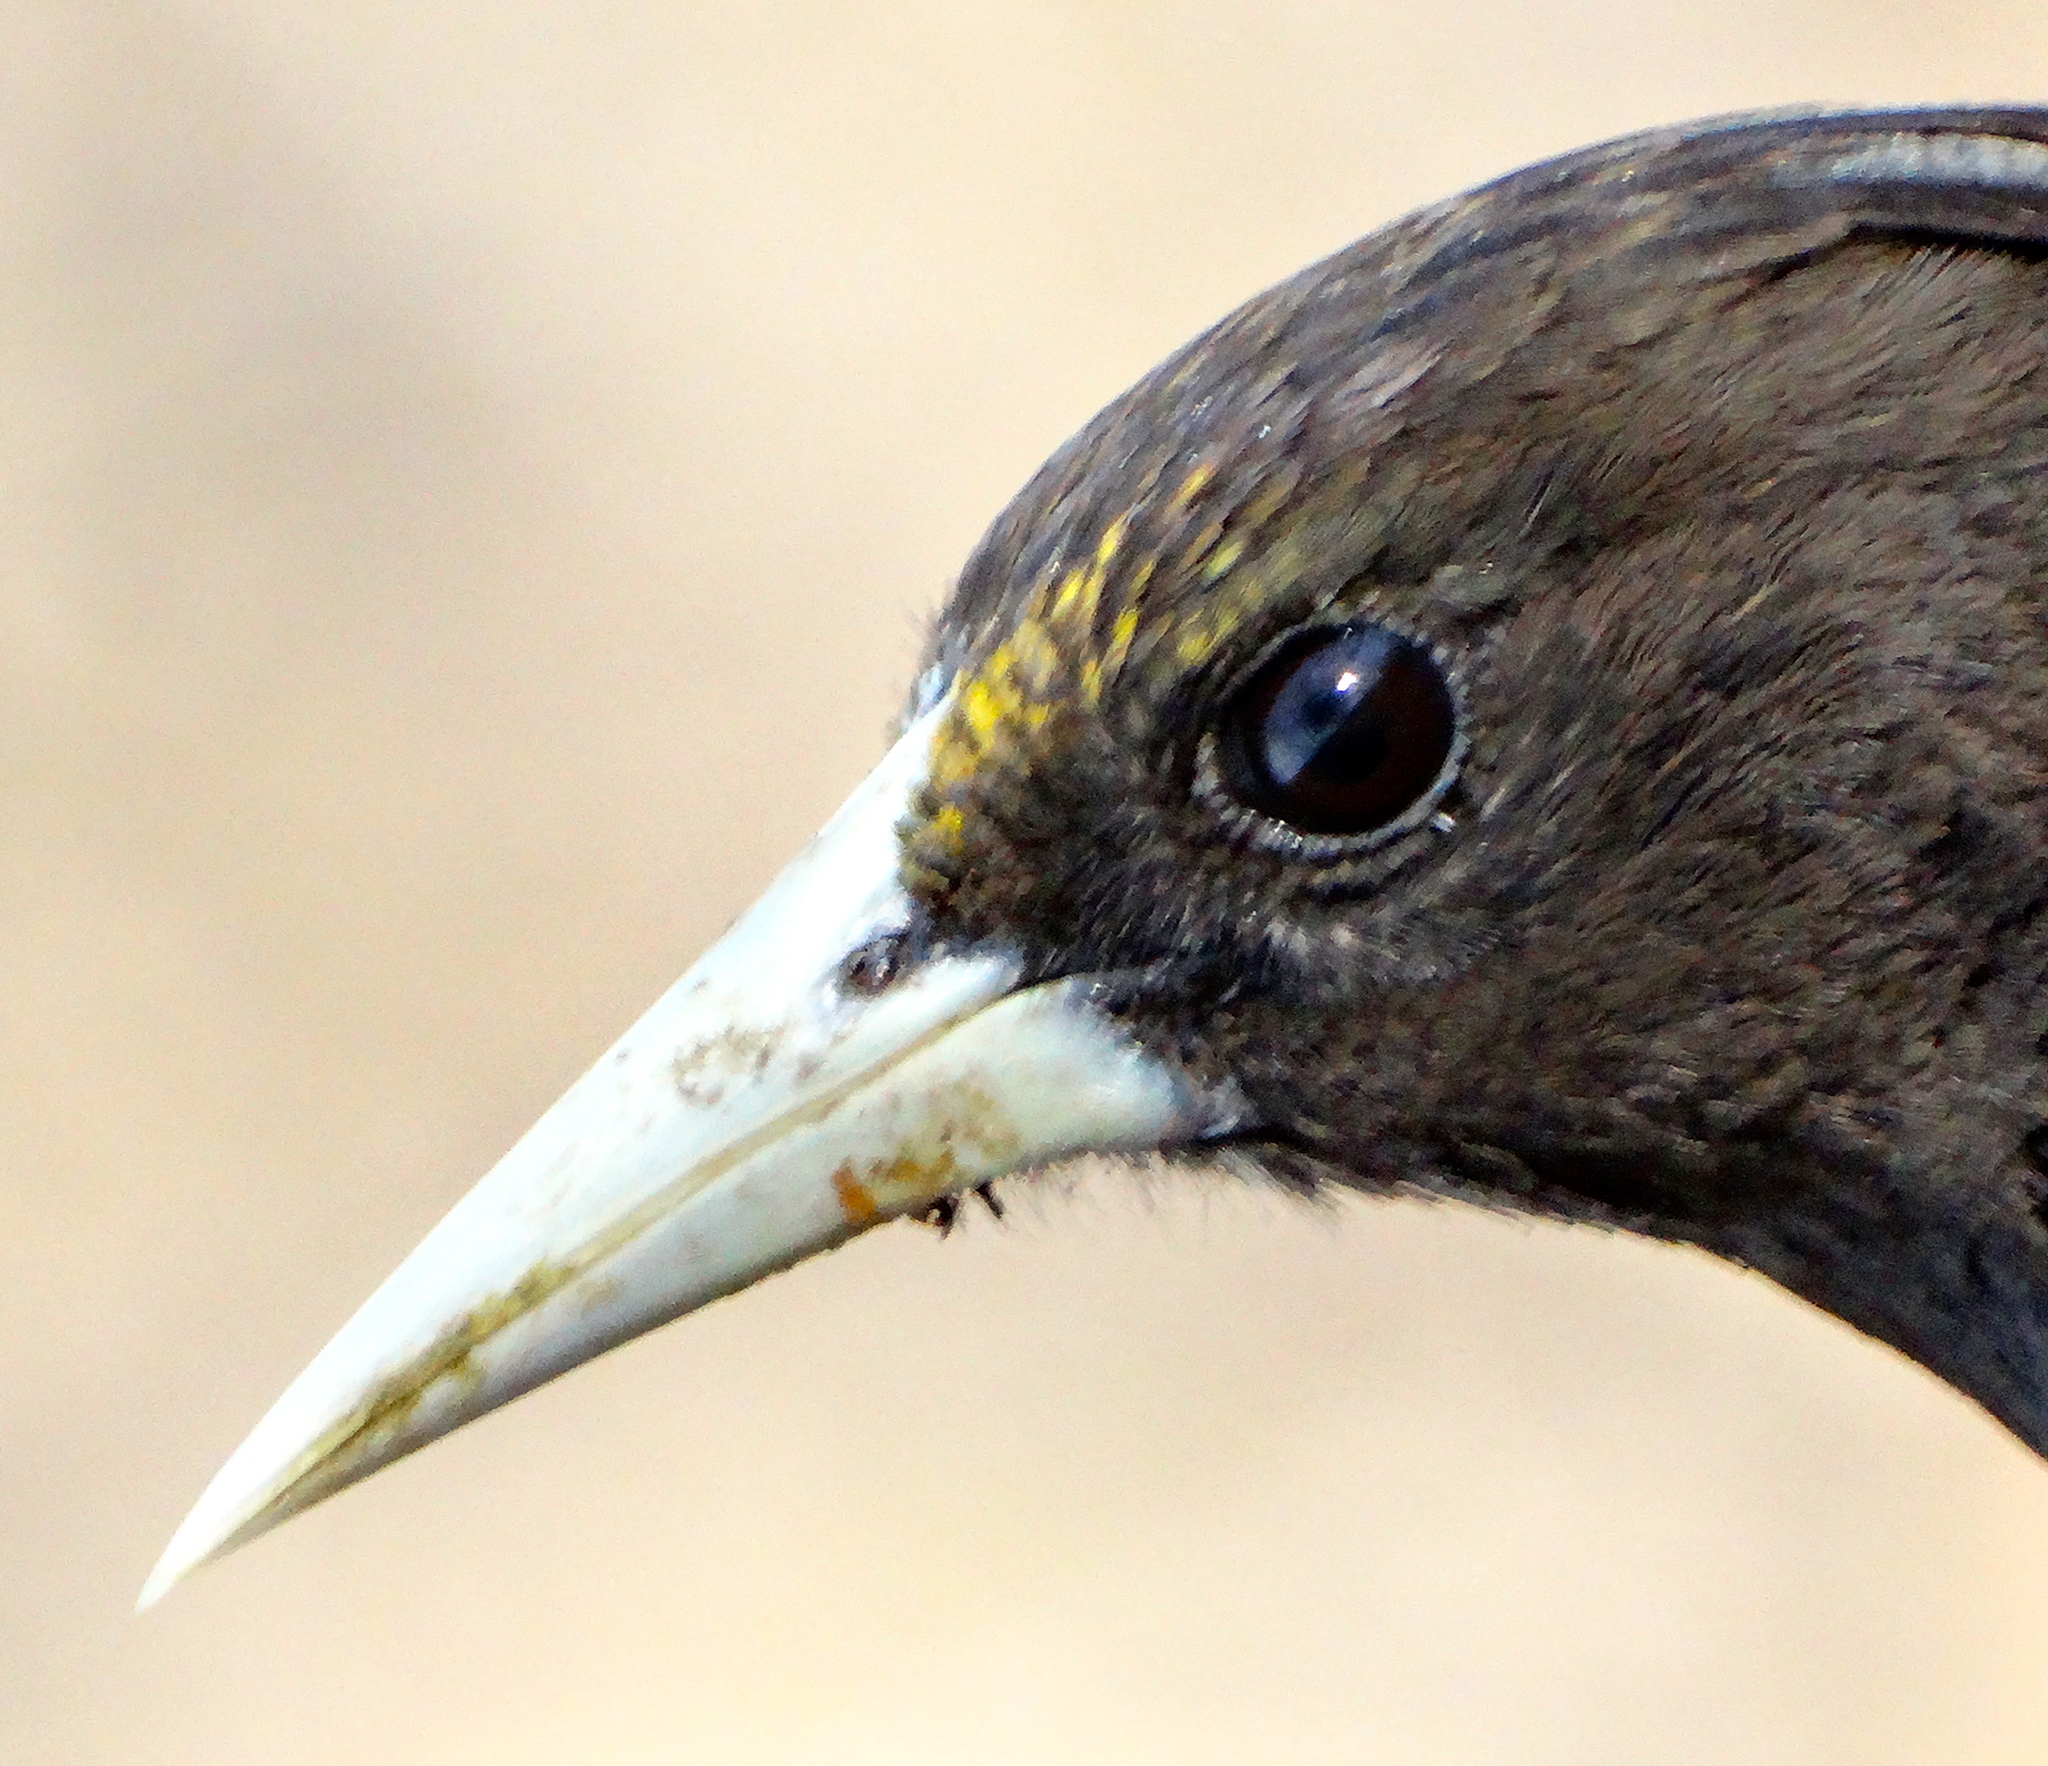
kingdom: Animalia
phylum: Chordata
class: Aves
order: Passeriformes
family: Icteridae
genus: Cacicus
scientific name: Cacicus melanicterus
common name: Yellow-winged cacique
